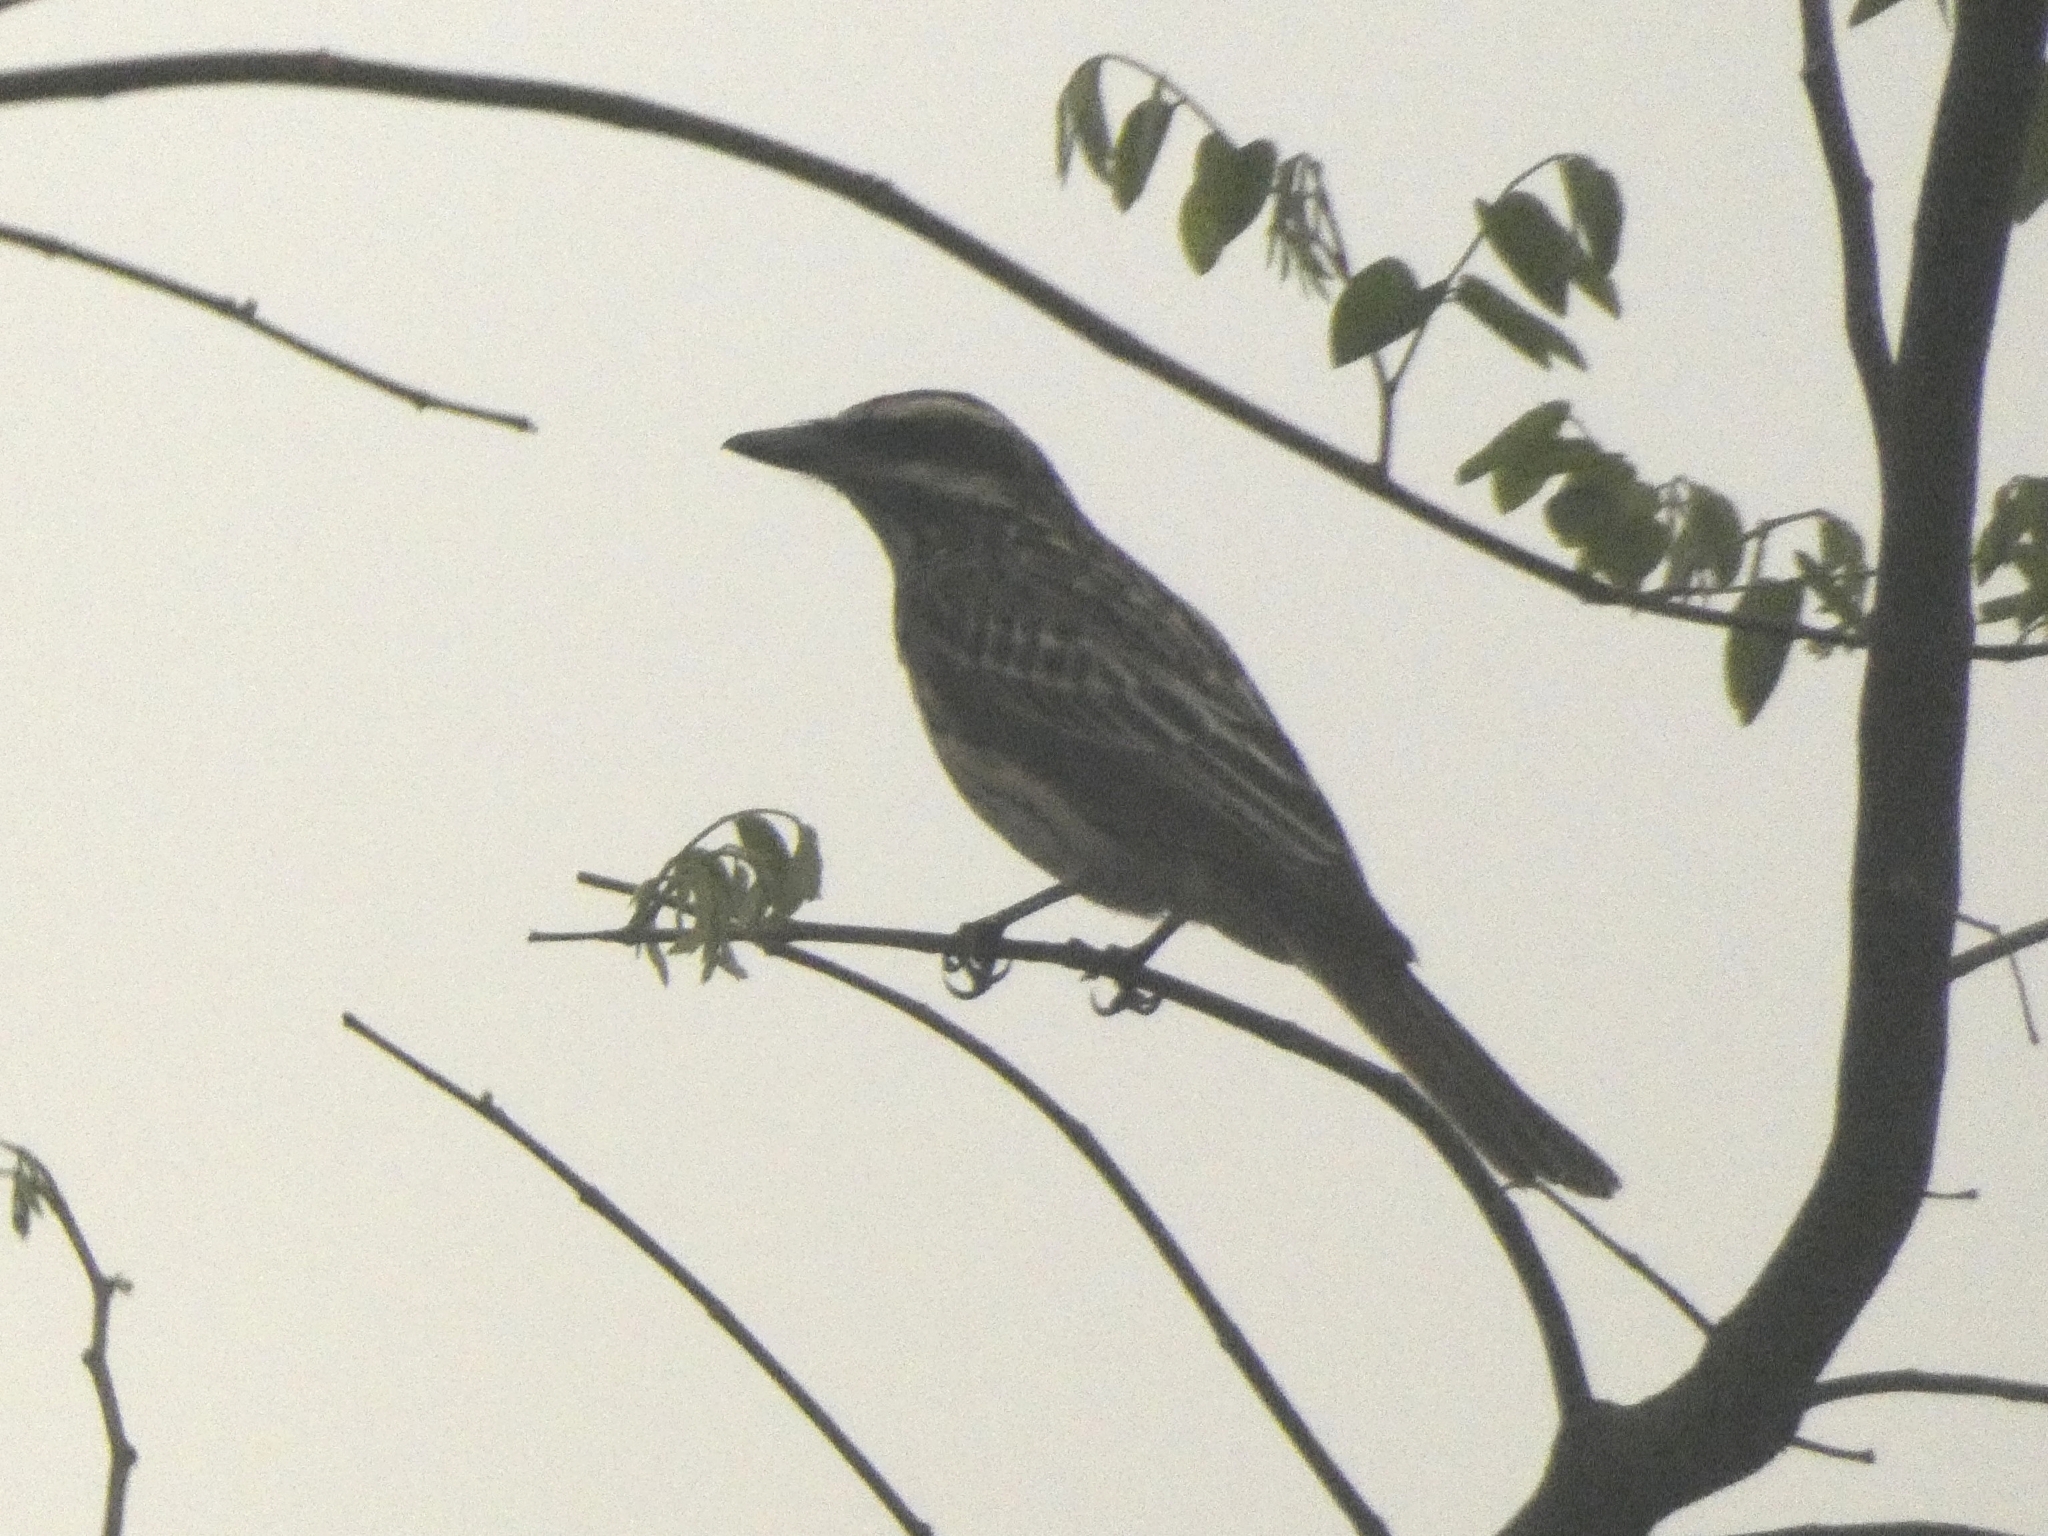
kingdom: Animalia
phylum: Chordata
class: Aves
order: Passeriformes
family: Tyrannidae
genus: Myiodynastes
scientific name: Myiodynastes maculatus
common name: Streaked flycatcher
